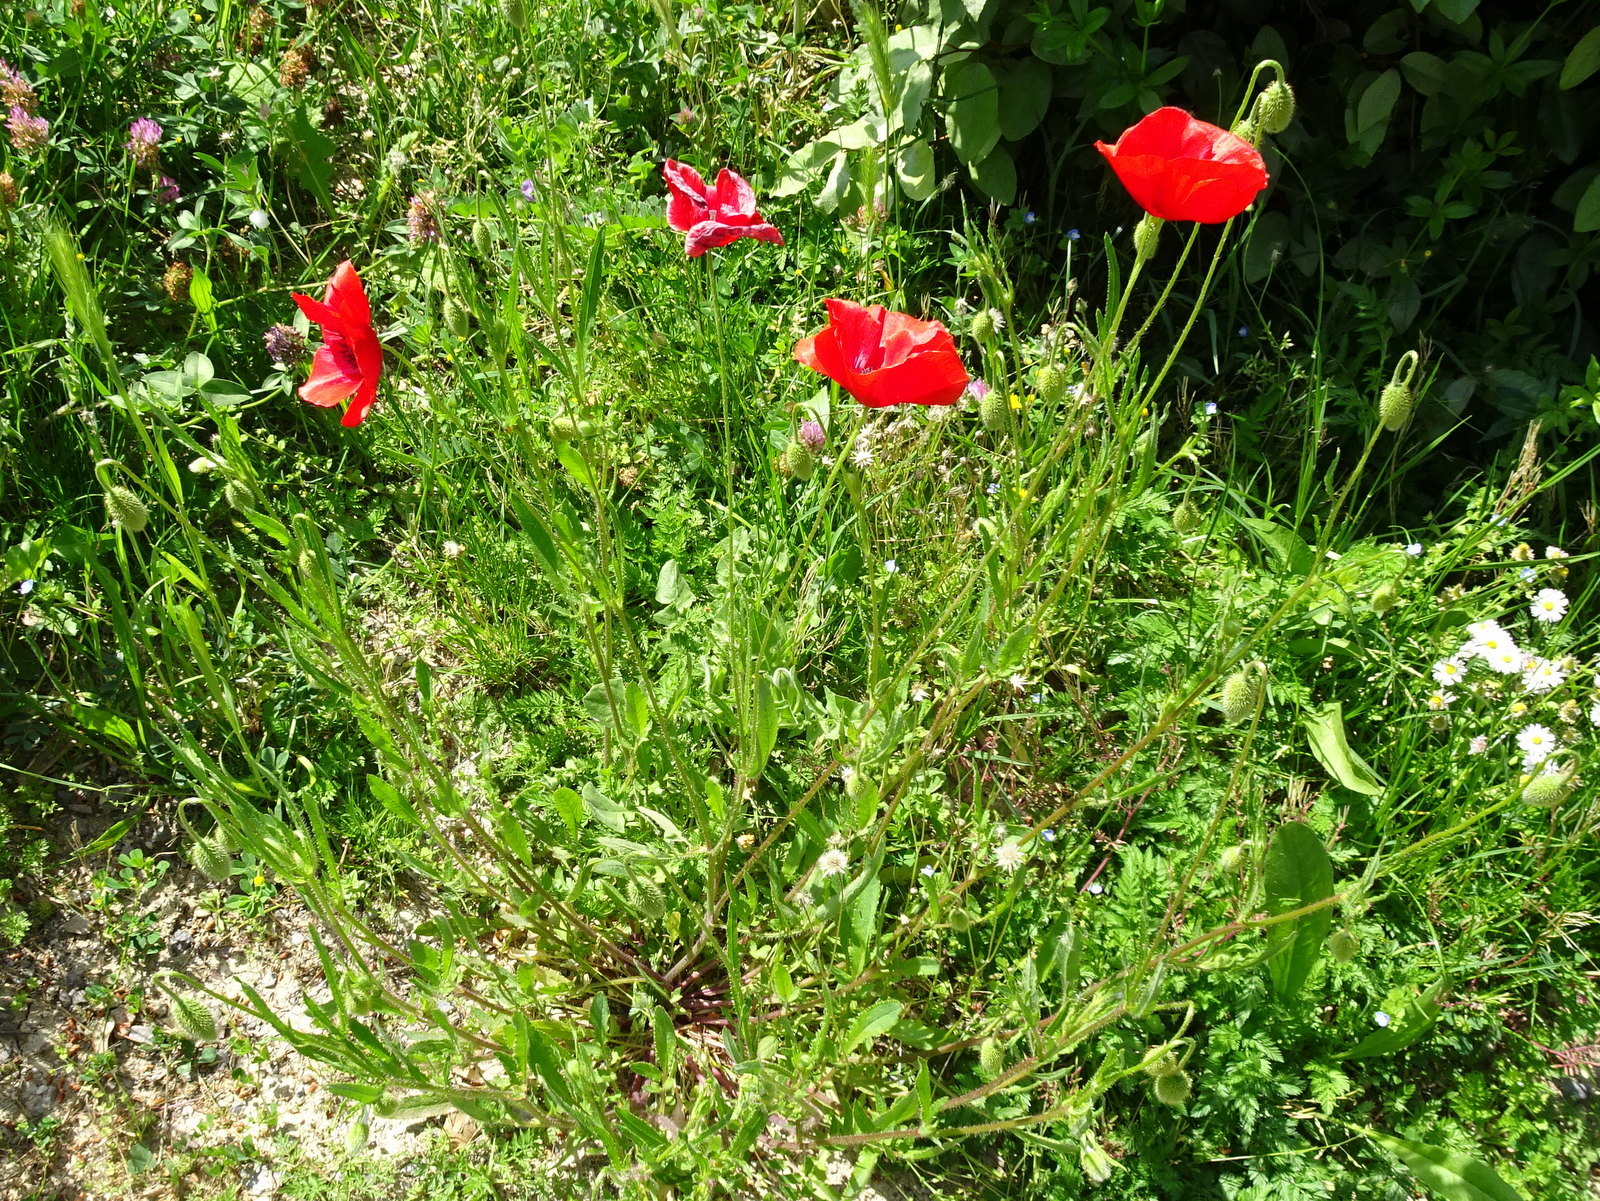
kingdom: Plantae
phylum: Tracheophyta
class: Magnoliopsida
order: Ranunculales
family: Papaveraceae
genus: Papaver
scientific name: Papaver rhoeas
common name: Corn poppy
